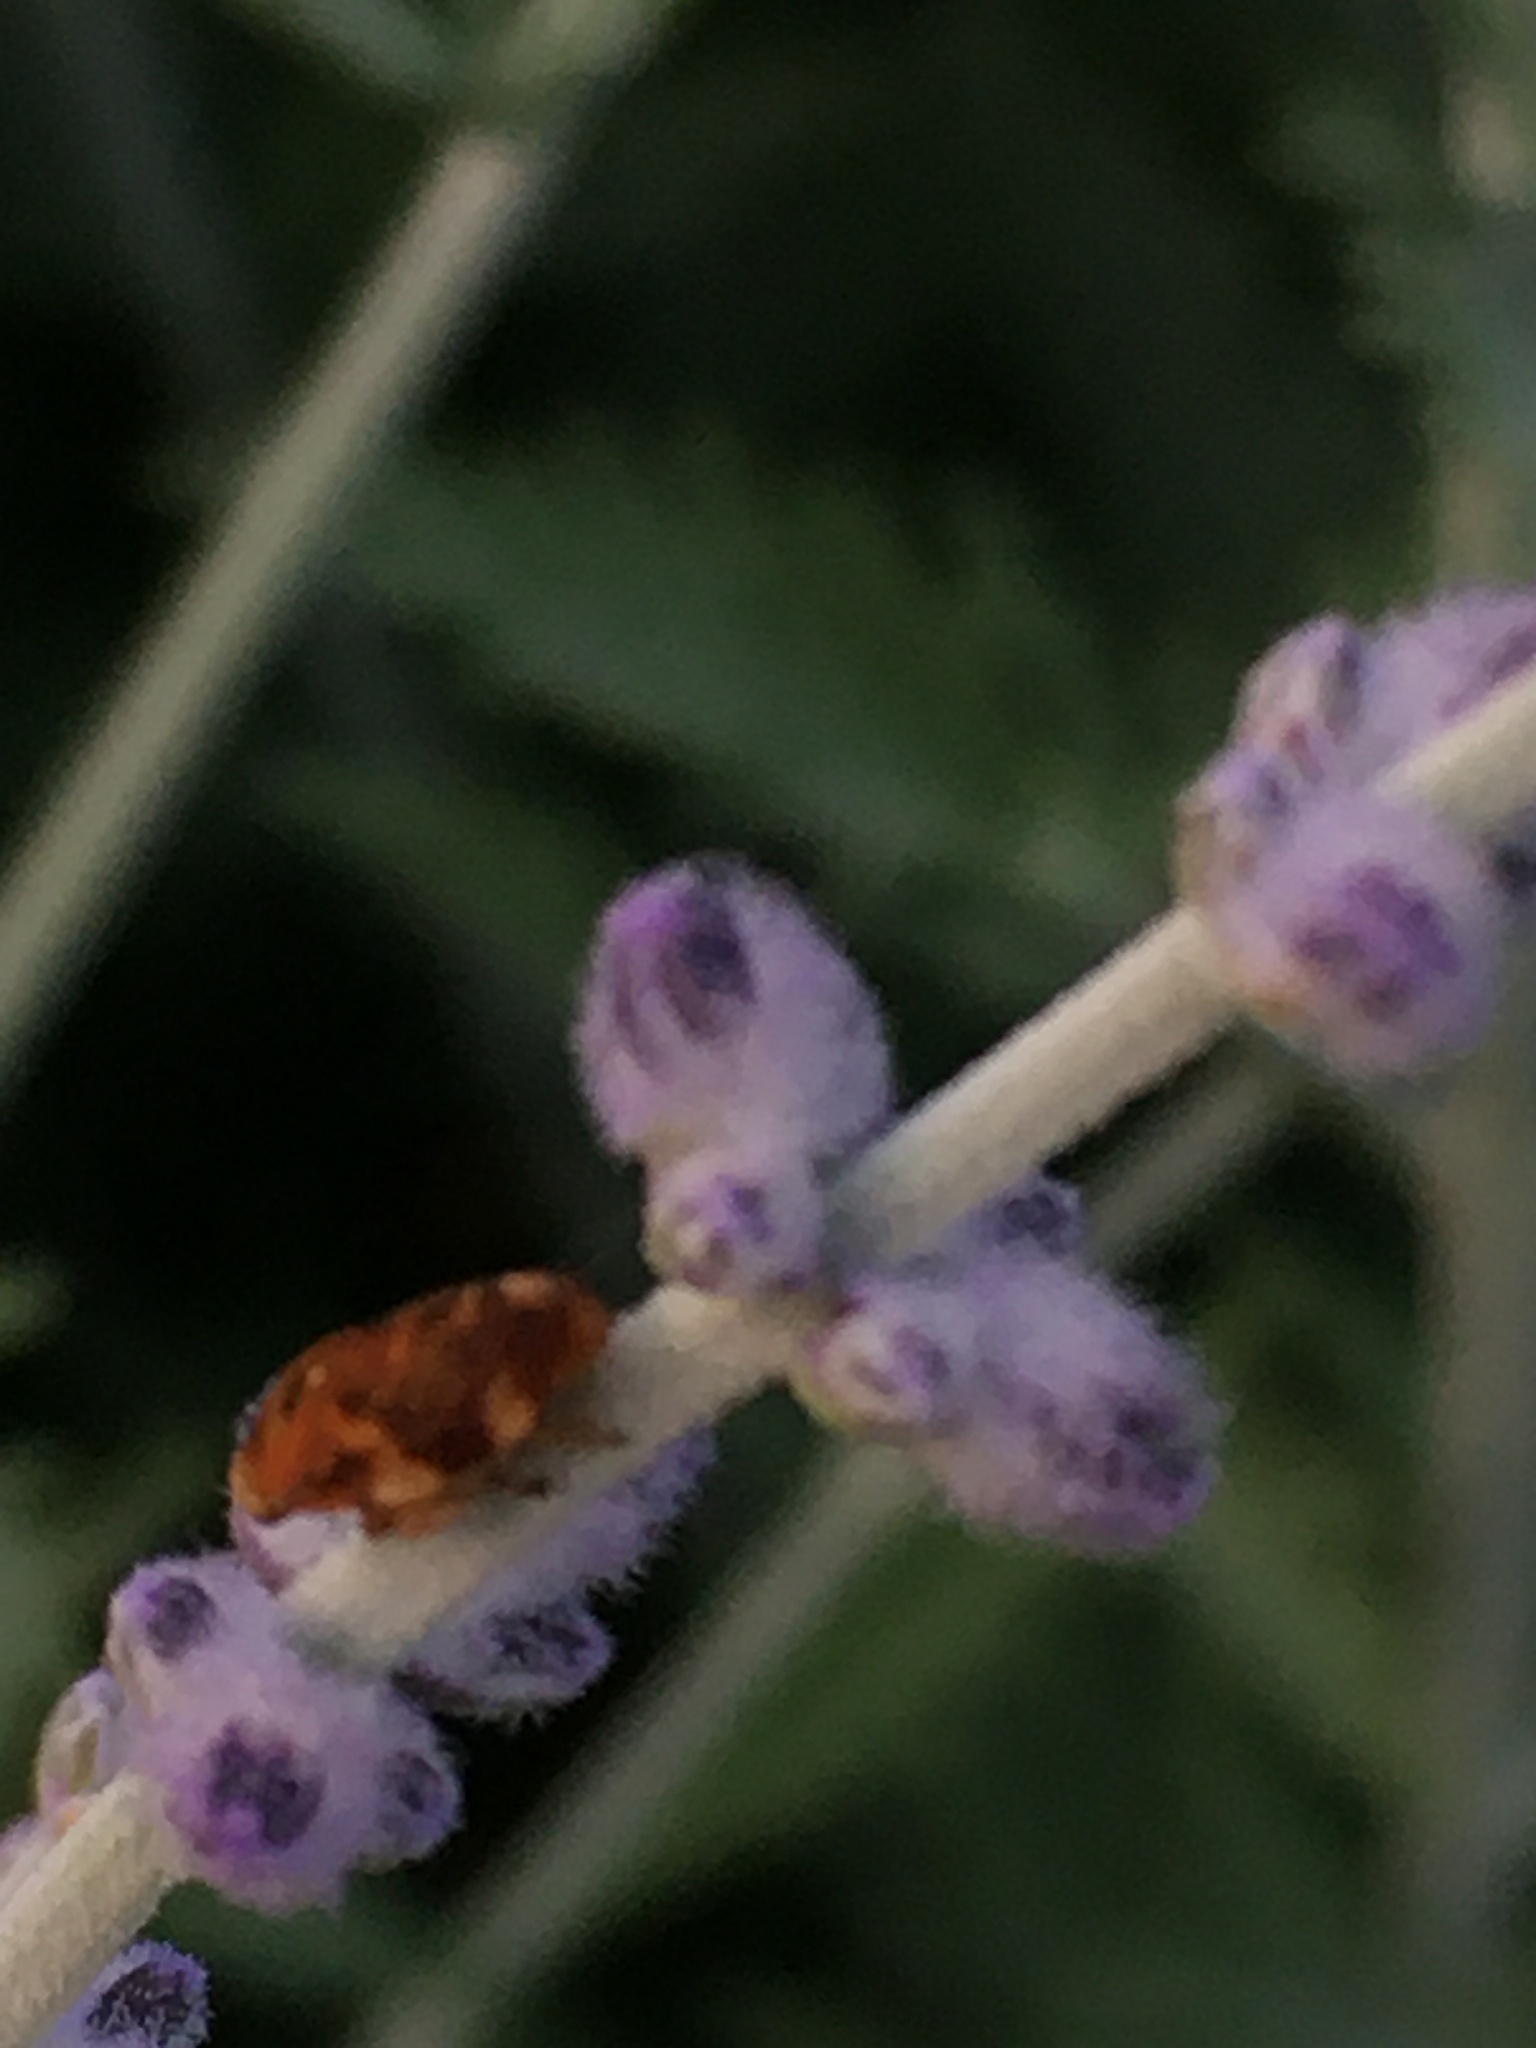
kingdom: Animalia
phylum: Arthropoda
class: Insecta
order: Hemiptera
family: Aphrophoridae
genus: Philaenus
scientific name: Philaenus spumarius
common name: Meadow spittlebug
